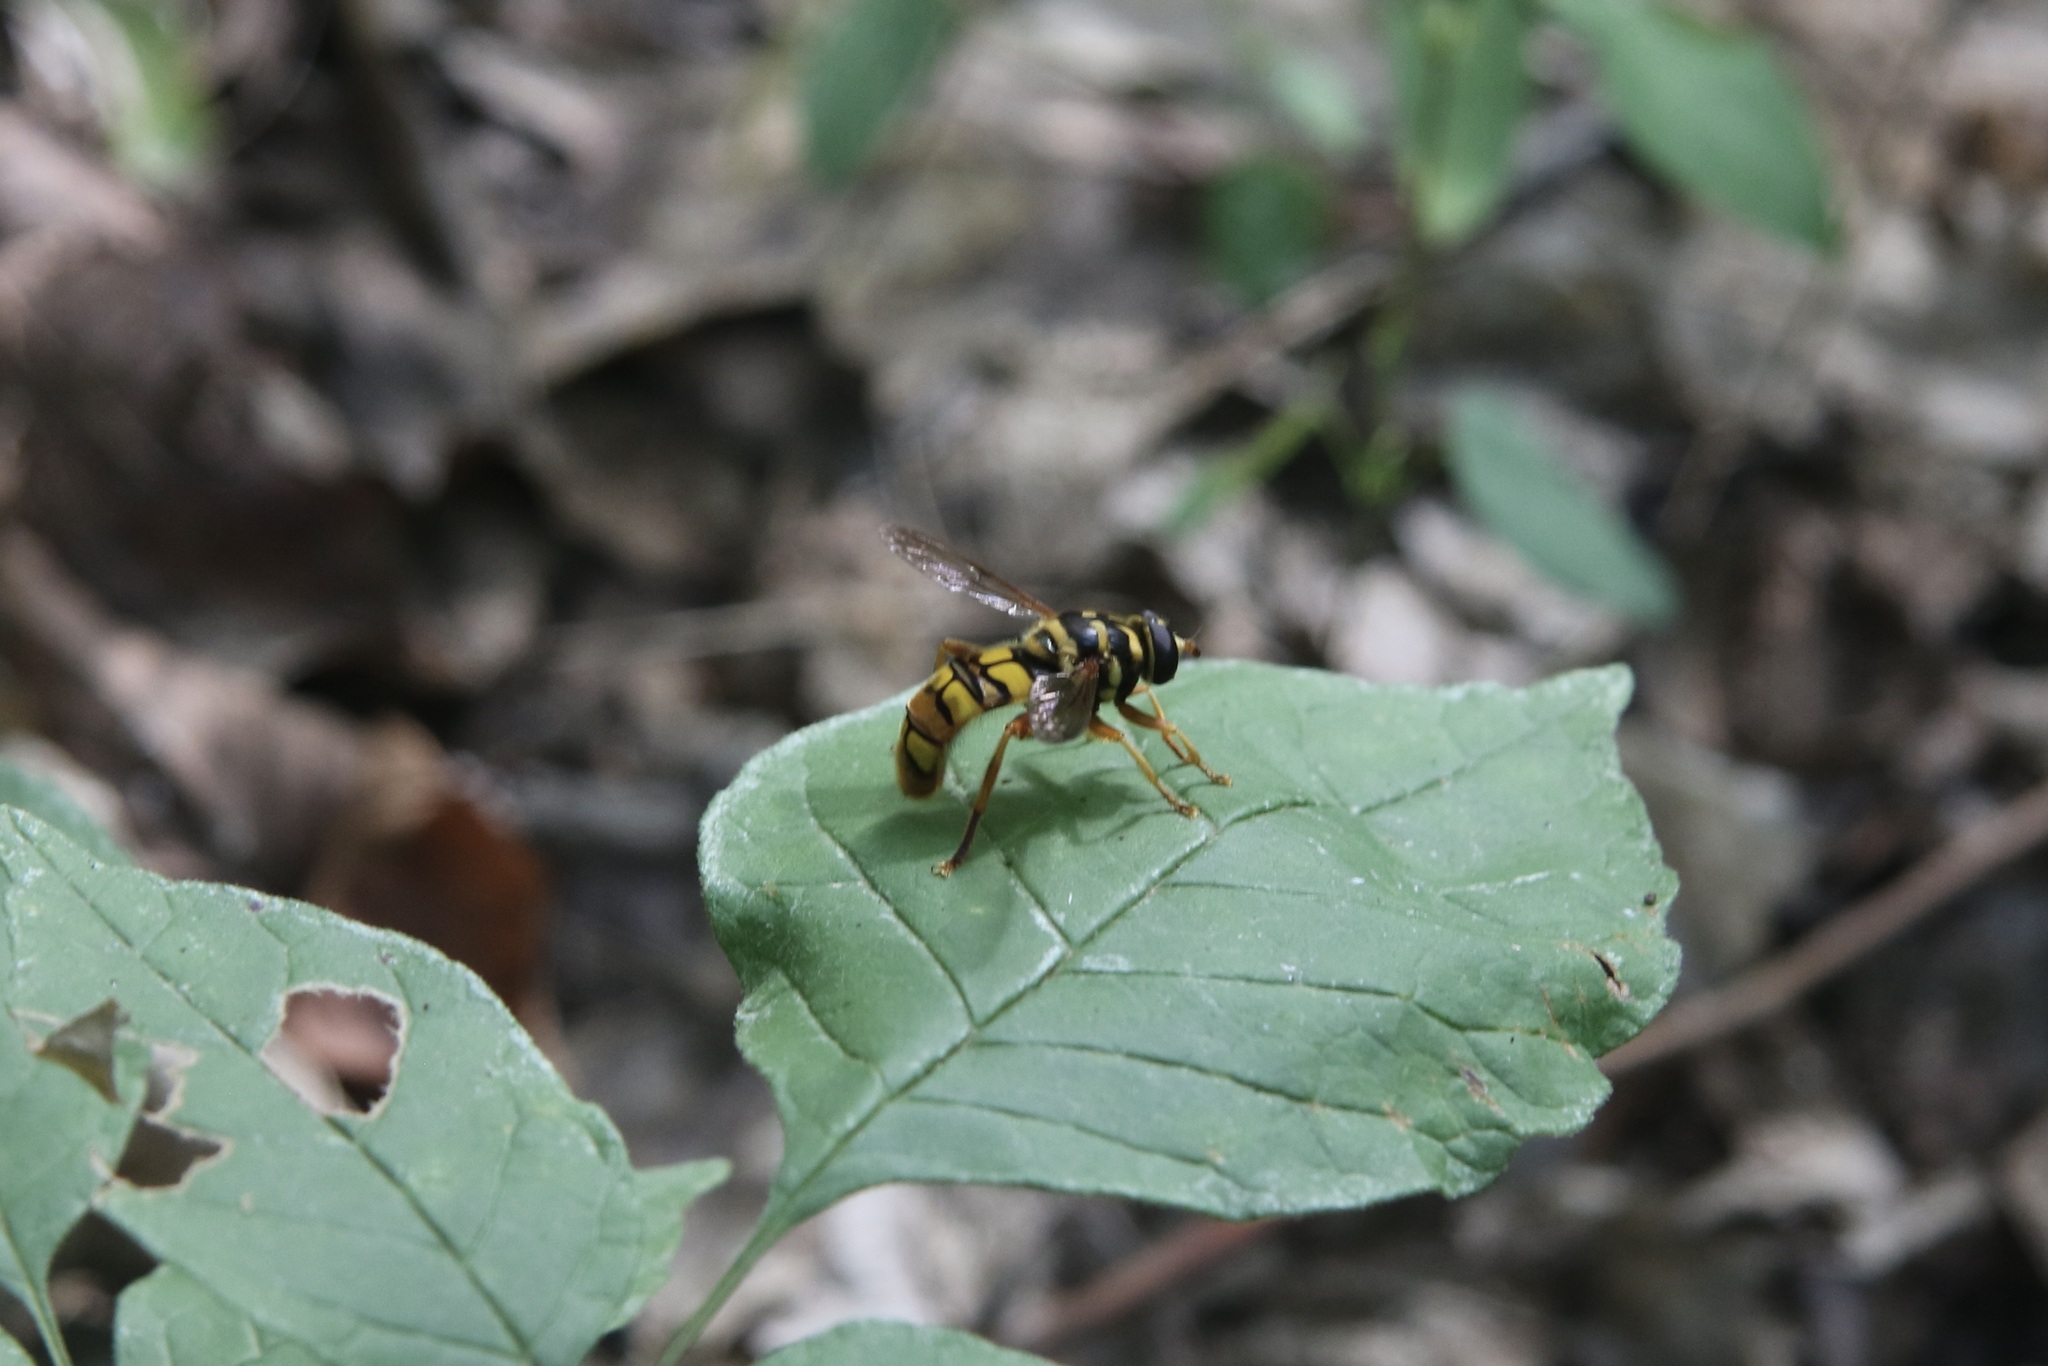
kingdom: Animalia
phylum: Arthropoda
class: Insecta
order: Diptera
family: Syrphidae
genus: Milesia
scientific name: Milesia virginiensis
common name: Virginia giant
